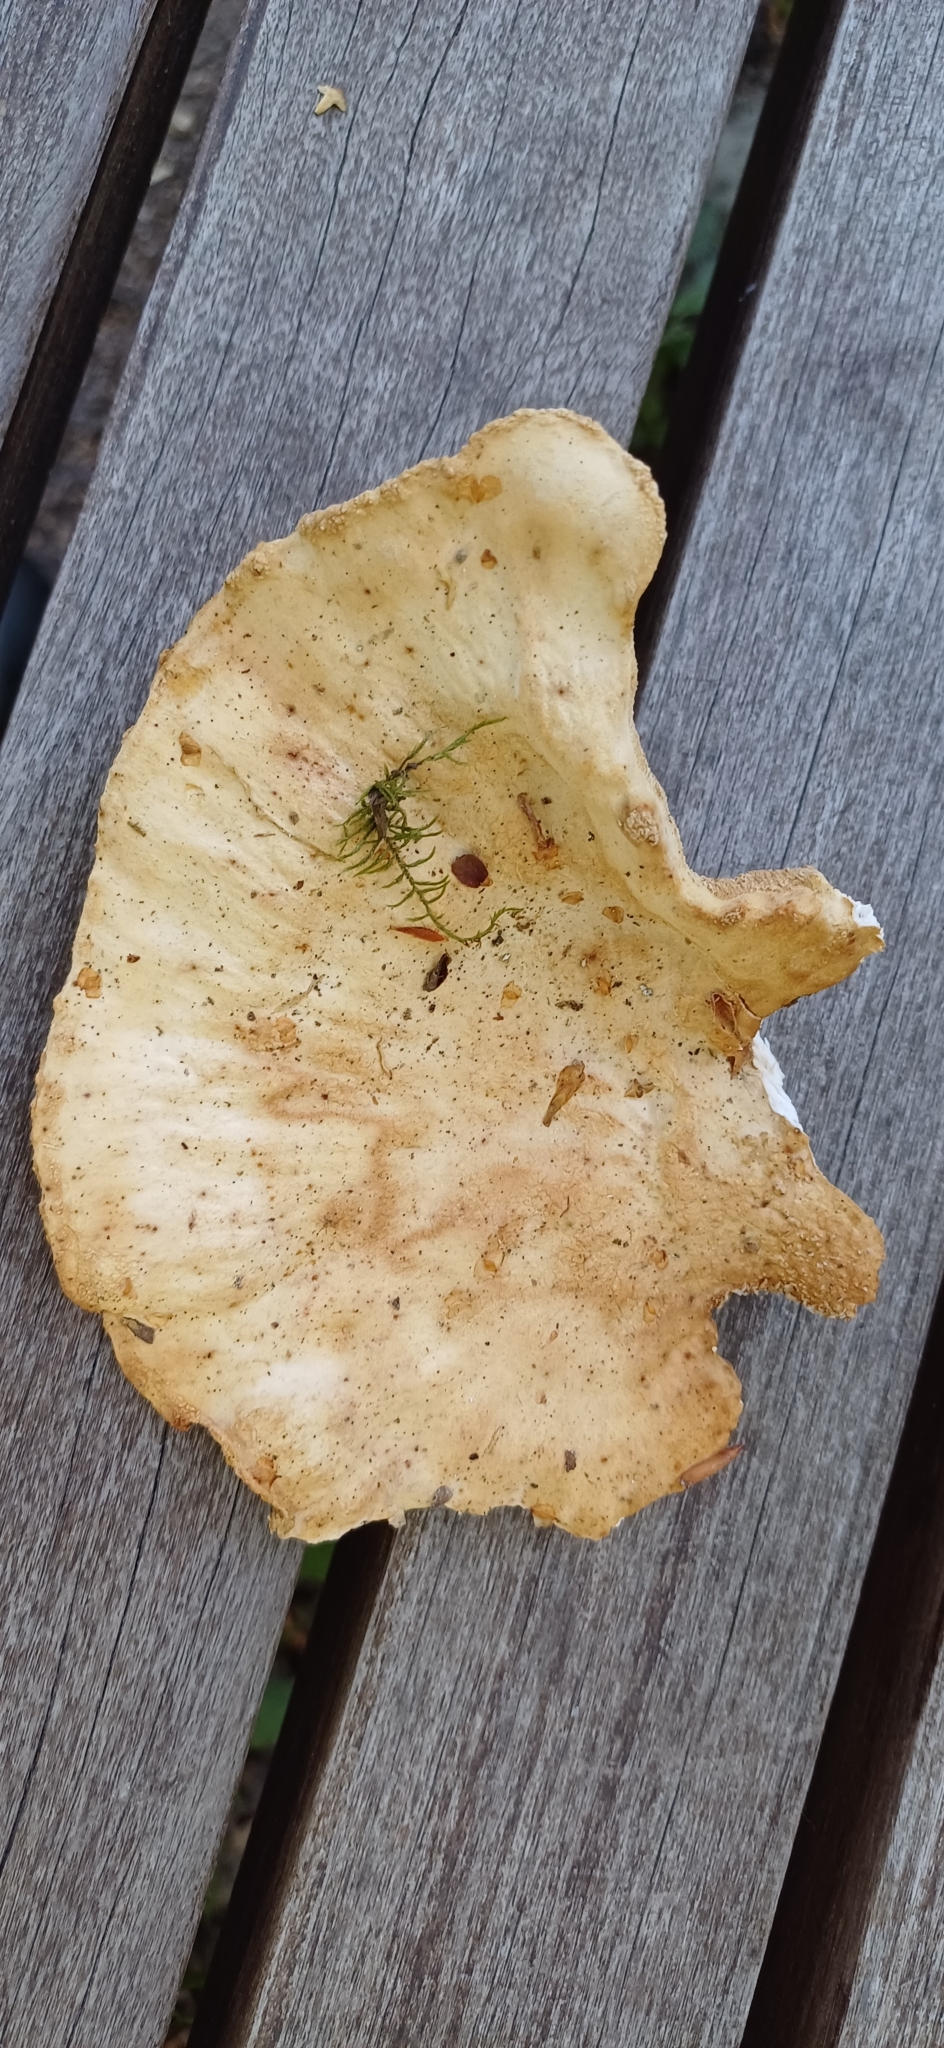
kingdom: Fungi
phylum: Basidiomycota
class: Agaricomycetes
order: Polyporales
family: Laetiporaceae
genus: Laetiporus
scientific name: Laetiporus sulphureus
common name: Chicken of the woods
